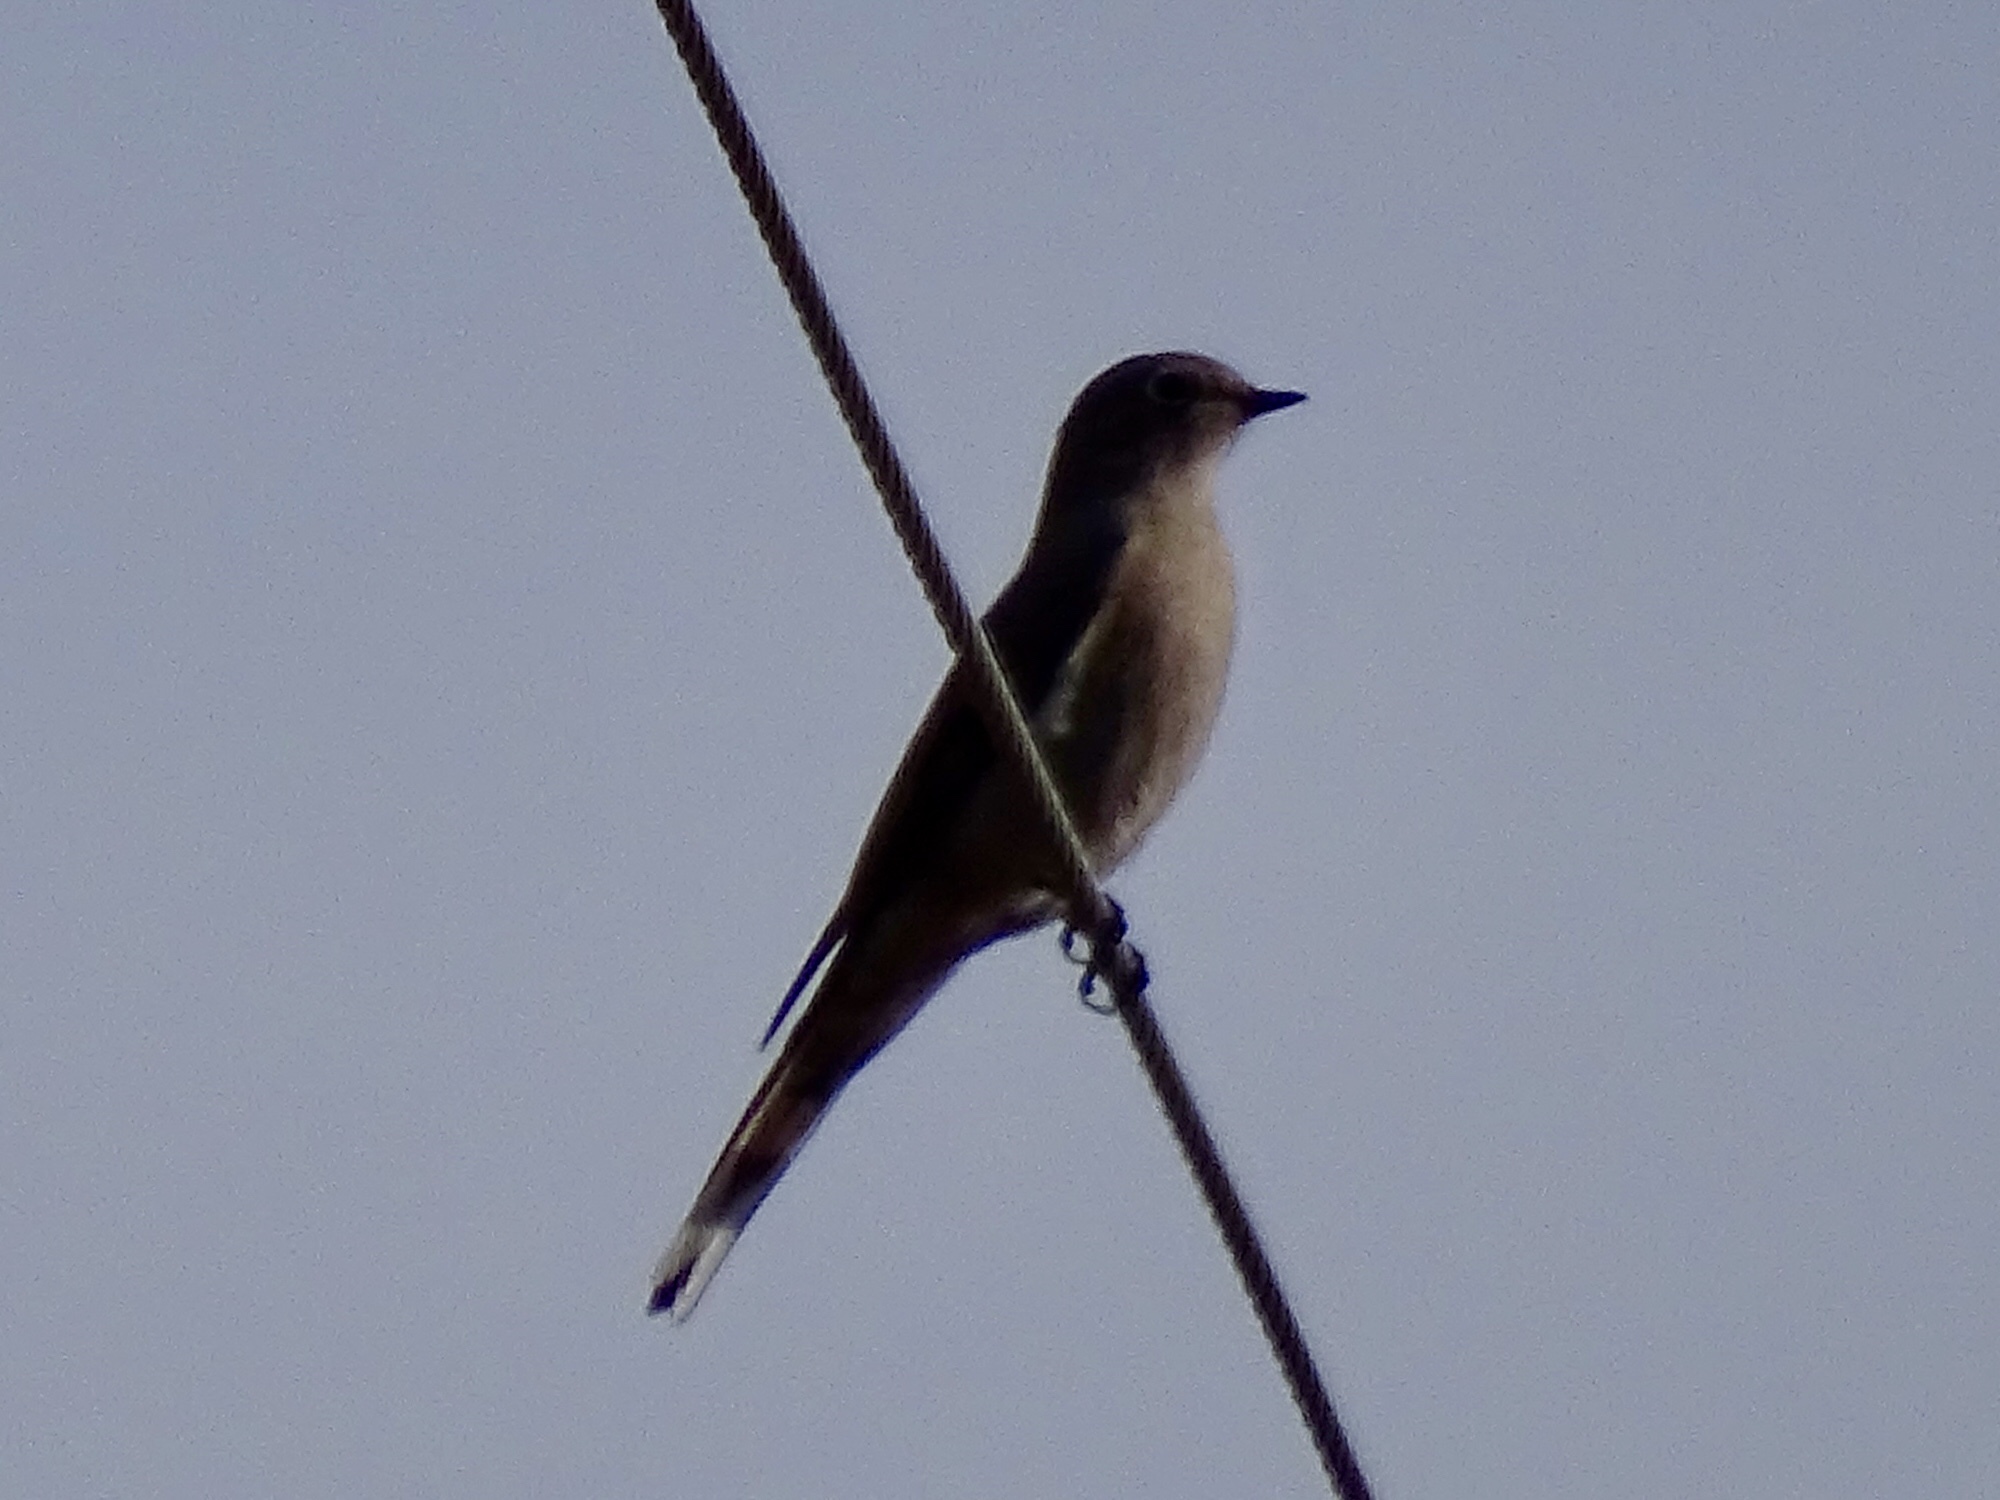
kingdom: Animalia
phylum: Chordata
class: Aves
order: Passeriformes
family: Turdidae
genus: Myadestes
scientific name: Myadestes townsendi
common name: Townsend's solitaire
